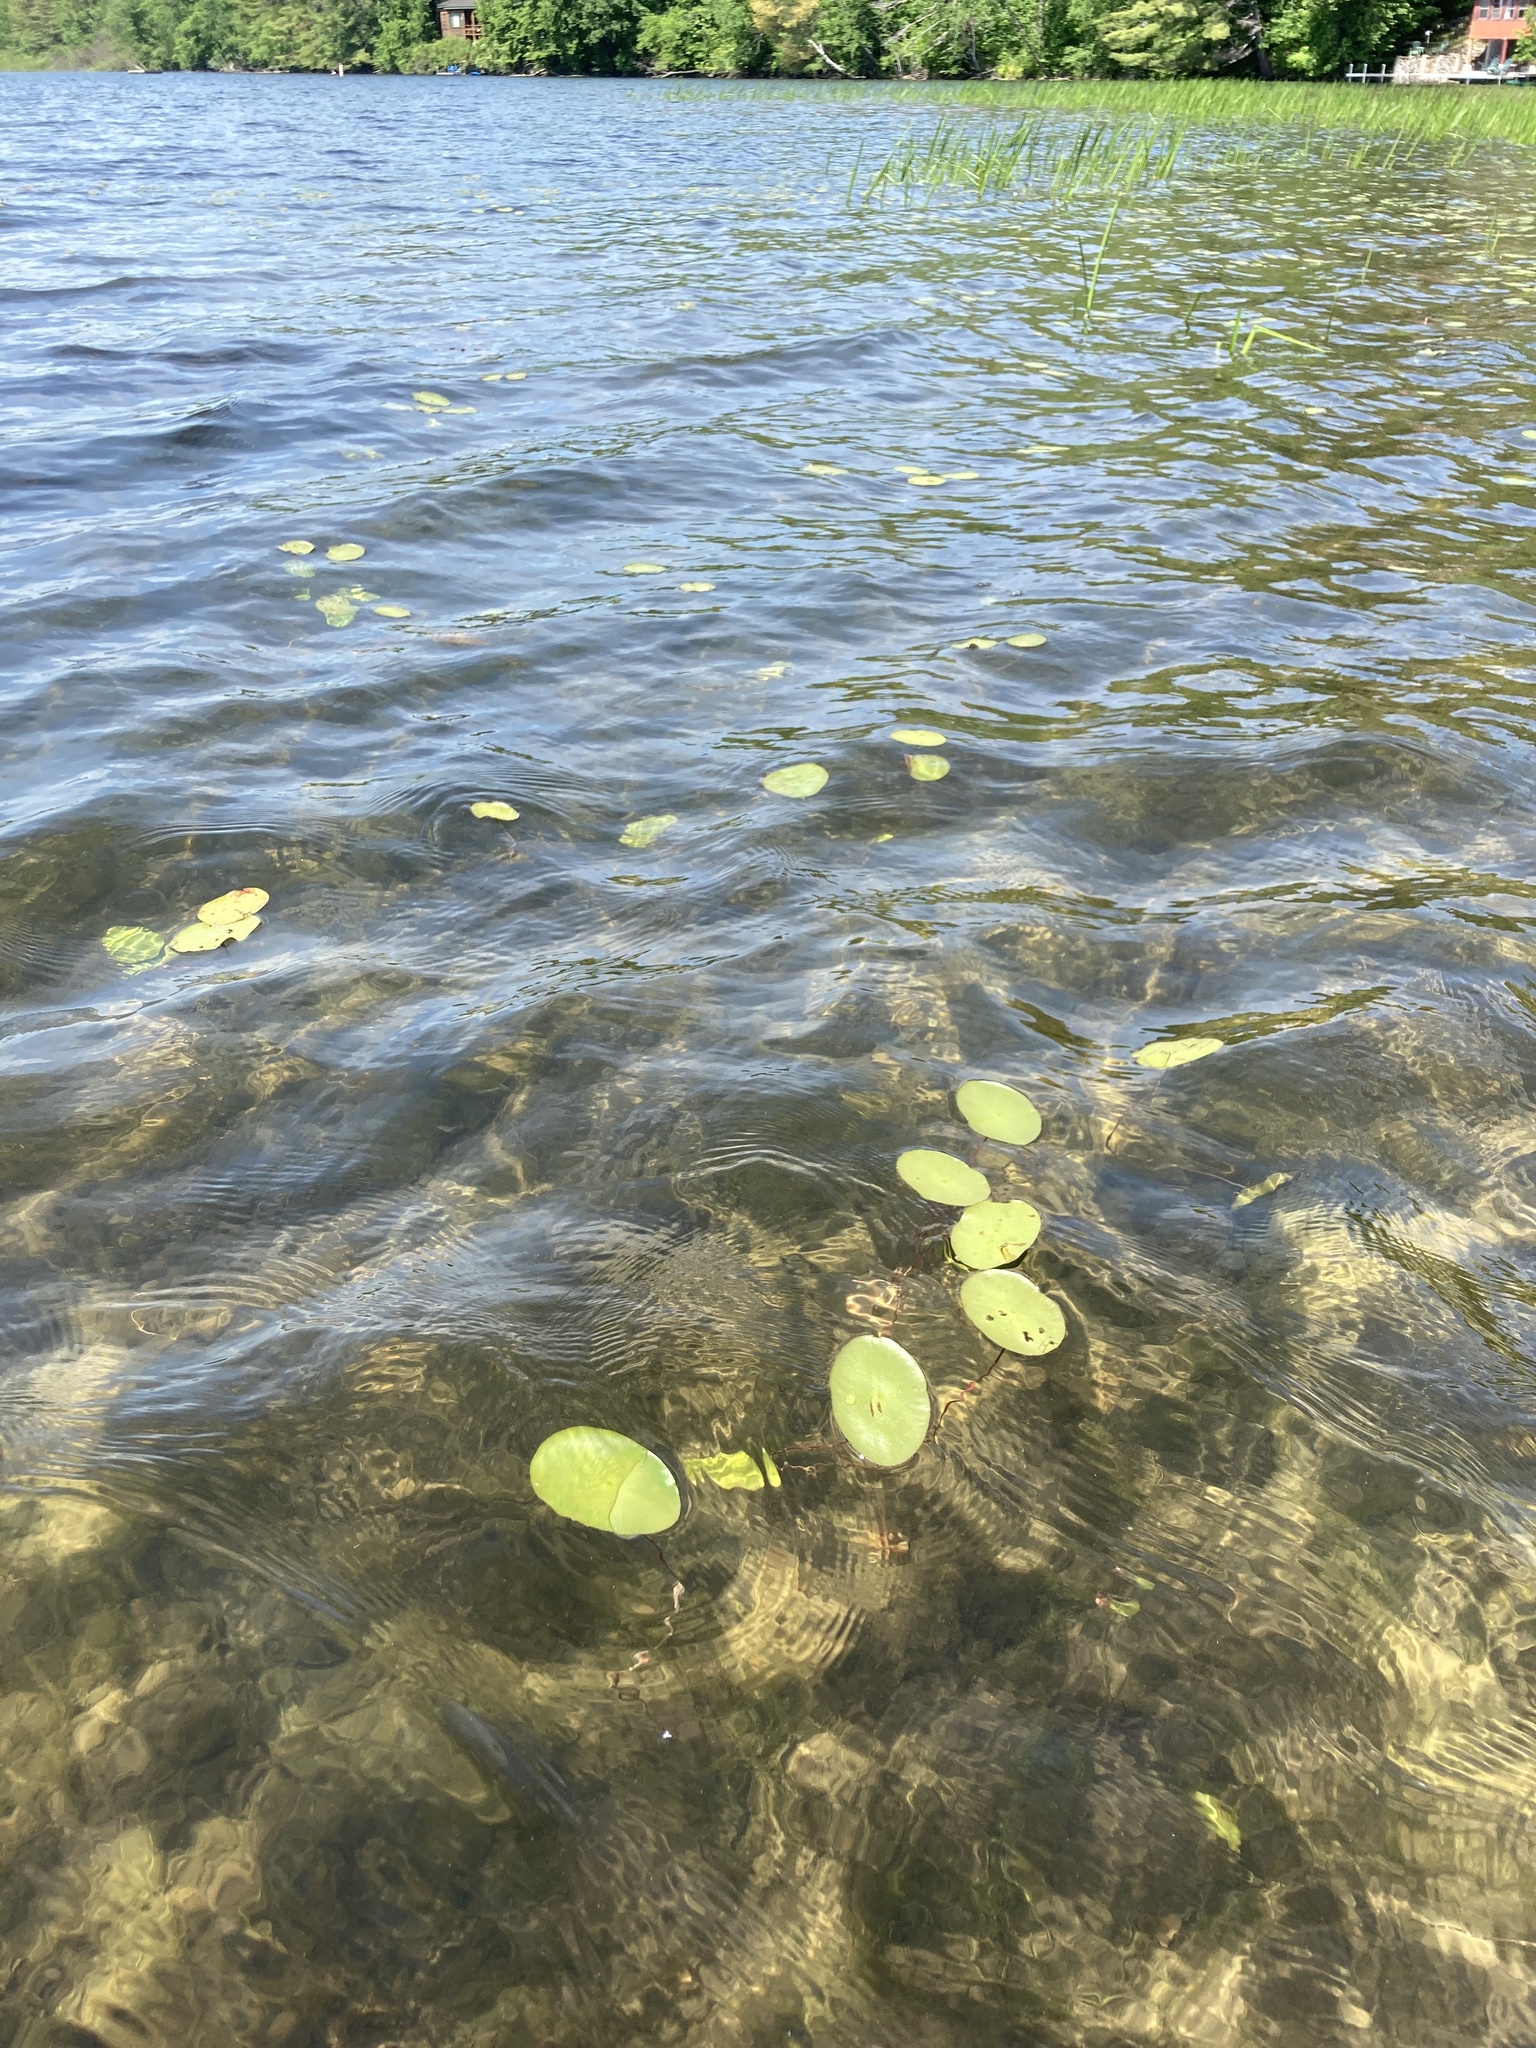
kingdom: Plantae
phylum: Tracheophyta
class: Magnoliopsida
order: Nymphaeales
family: Cabombaceae
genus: Brasenia
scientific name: Brasenia schreberi
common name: Water-shield
